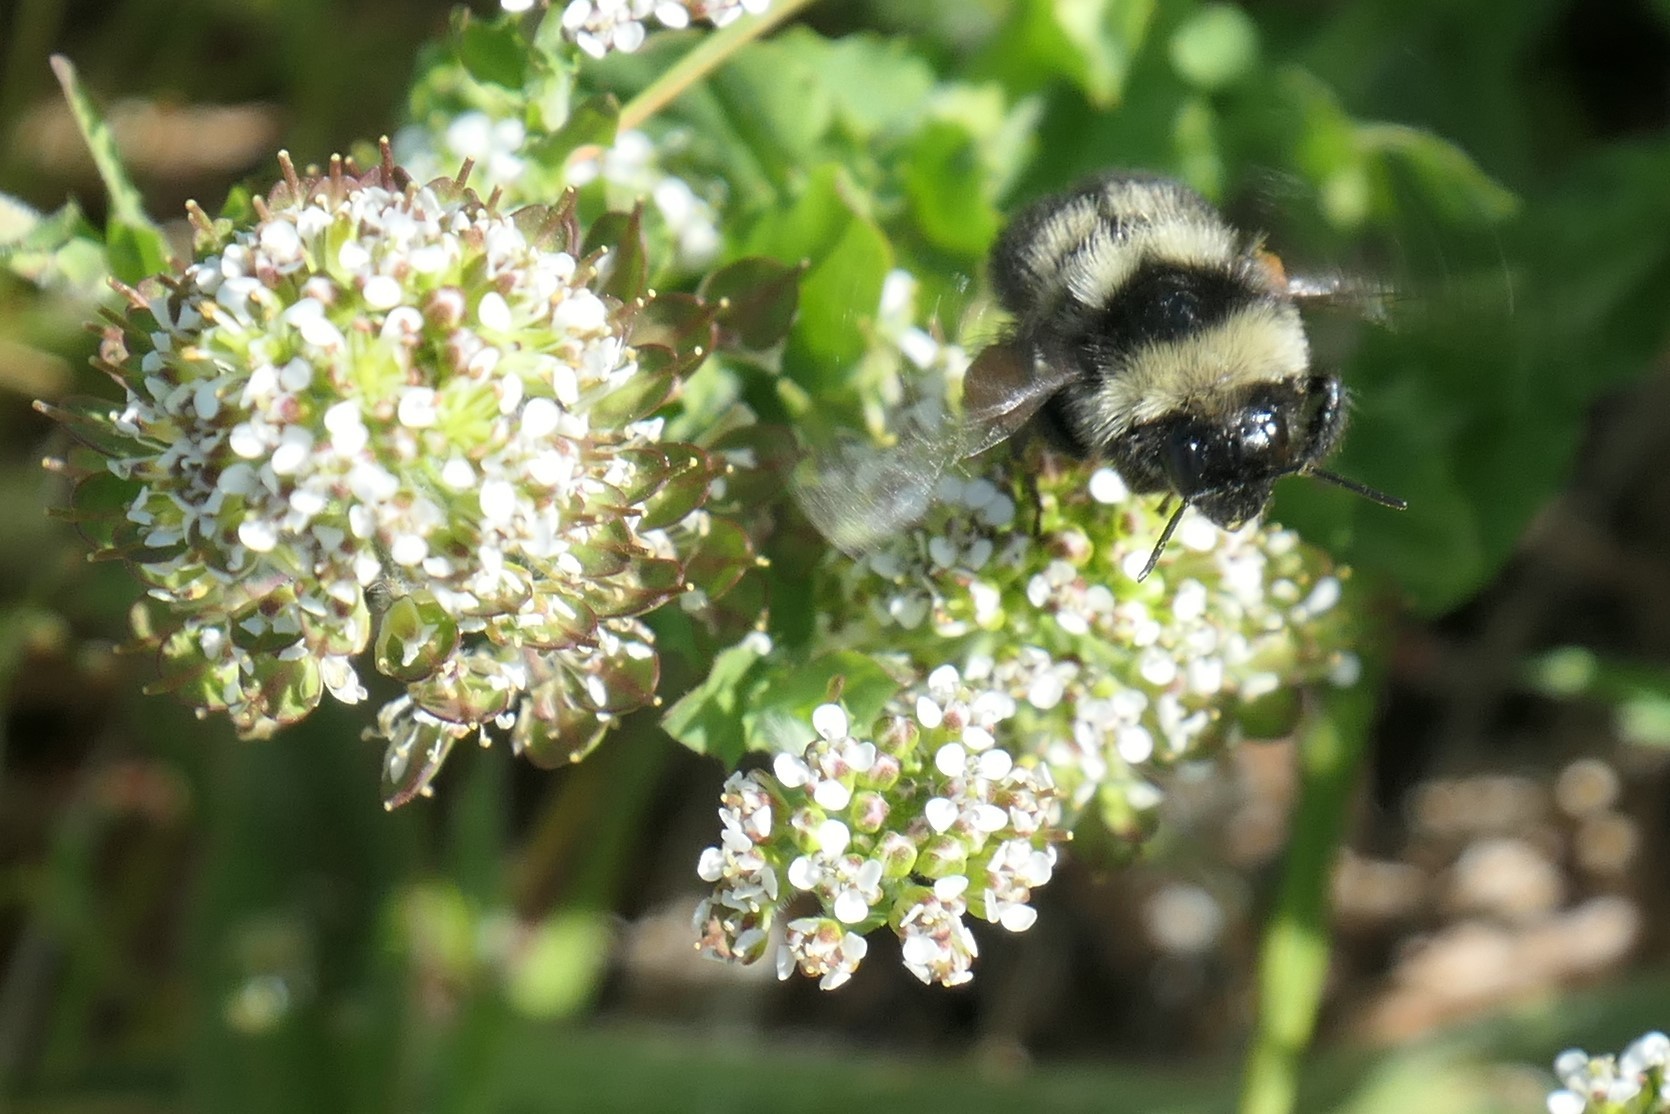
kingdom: Animalia
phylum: Arthropoda
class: Insecta
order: Hymenoptera
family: Apidae
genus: Bombus
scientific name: Bombus rufocinctus
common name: Red-belted bumble bee
